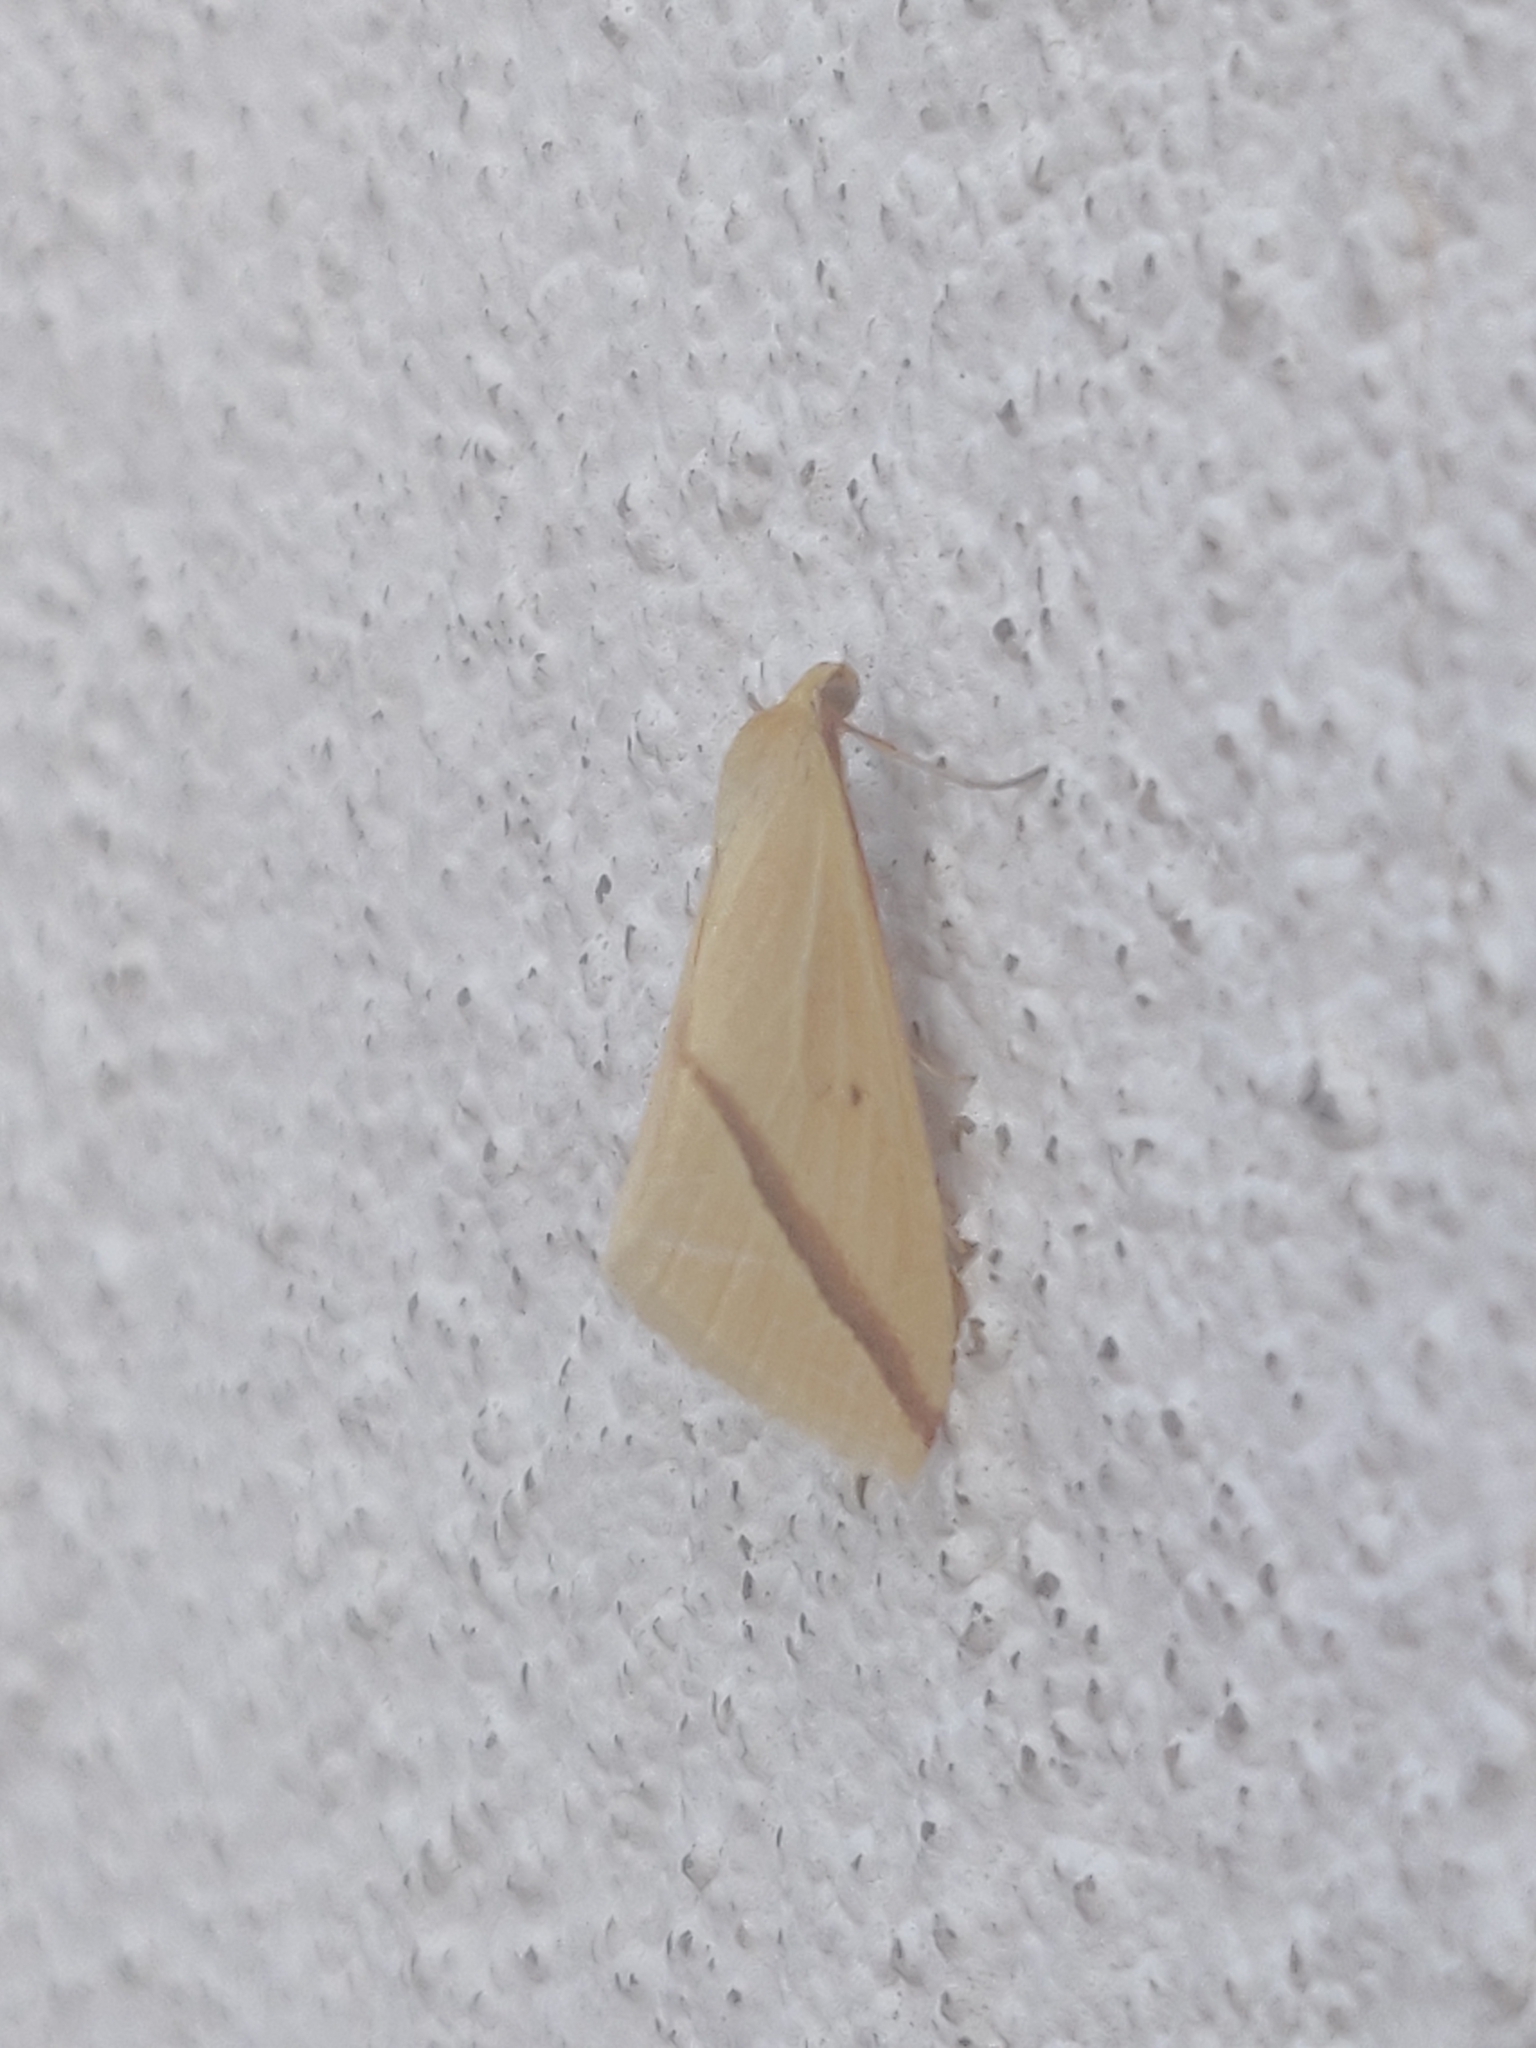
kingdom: Animalia
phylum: Arthropoda
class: Insecta
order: Lepidoptera
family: Geometridae
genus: Rhodometra
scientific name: Rhodometra sacraria
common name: Vestal
